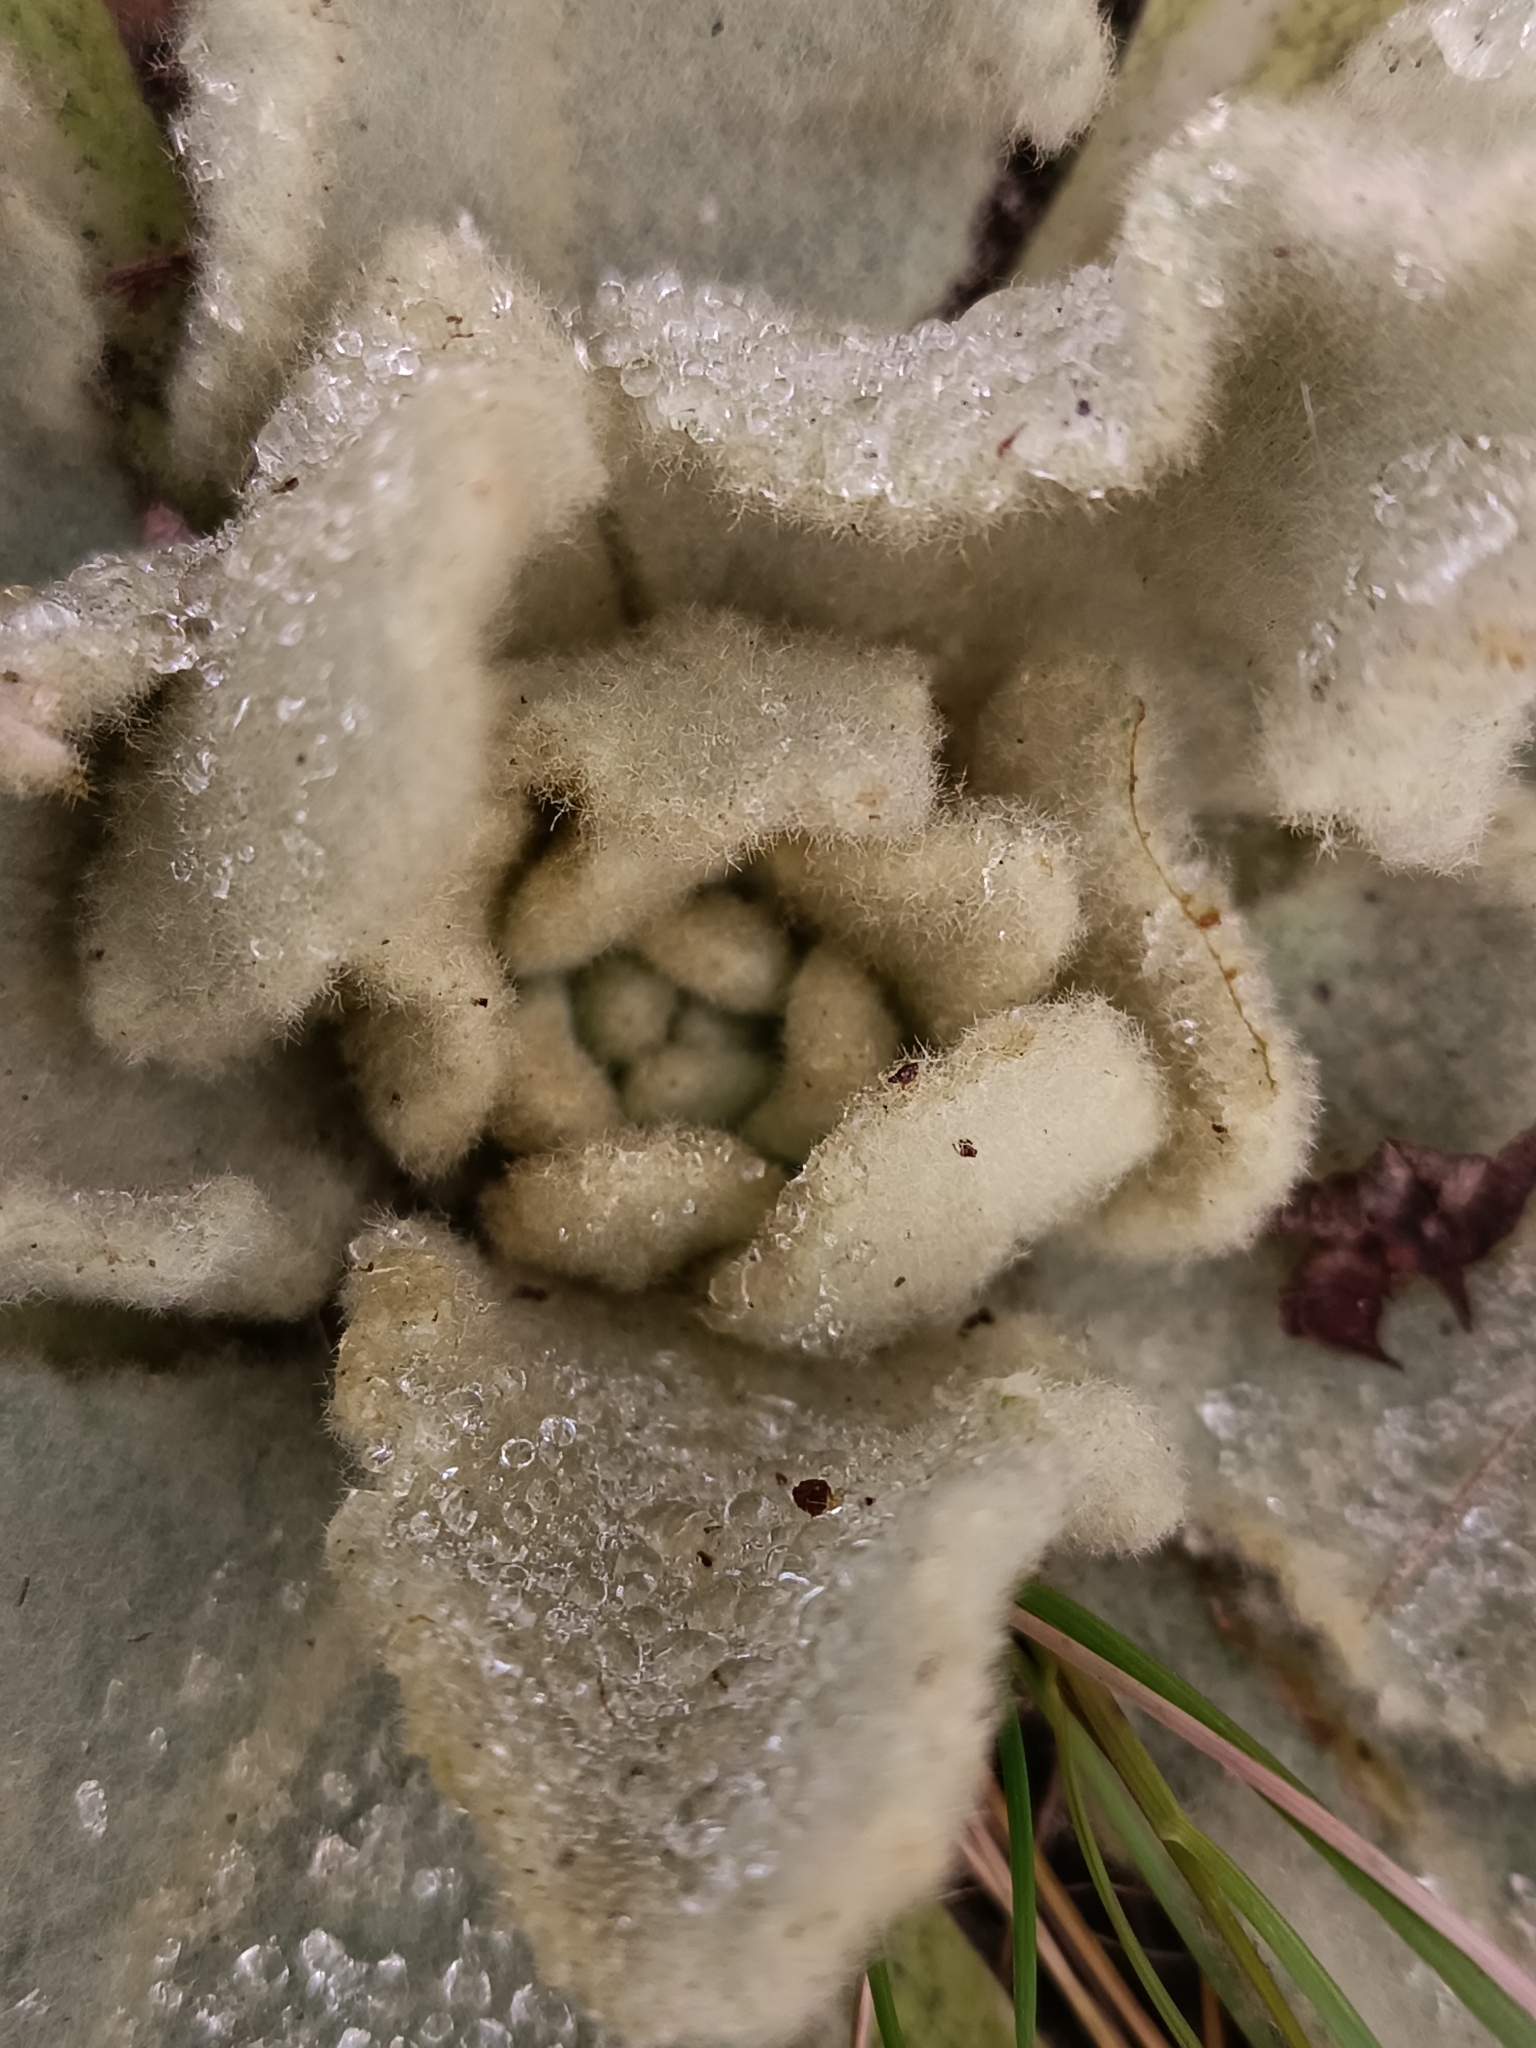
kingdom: Plantae
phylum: Tracheophyta
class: Magnoliopsida
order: Lamiales
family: Scrophulariaceae
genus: Verbascum
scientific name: Verbascum thapsus
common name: Common mullein
